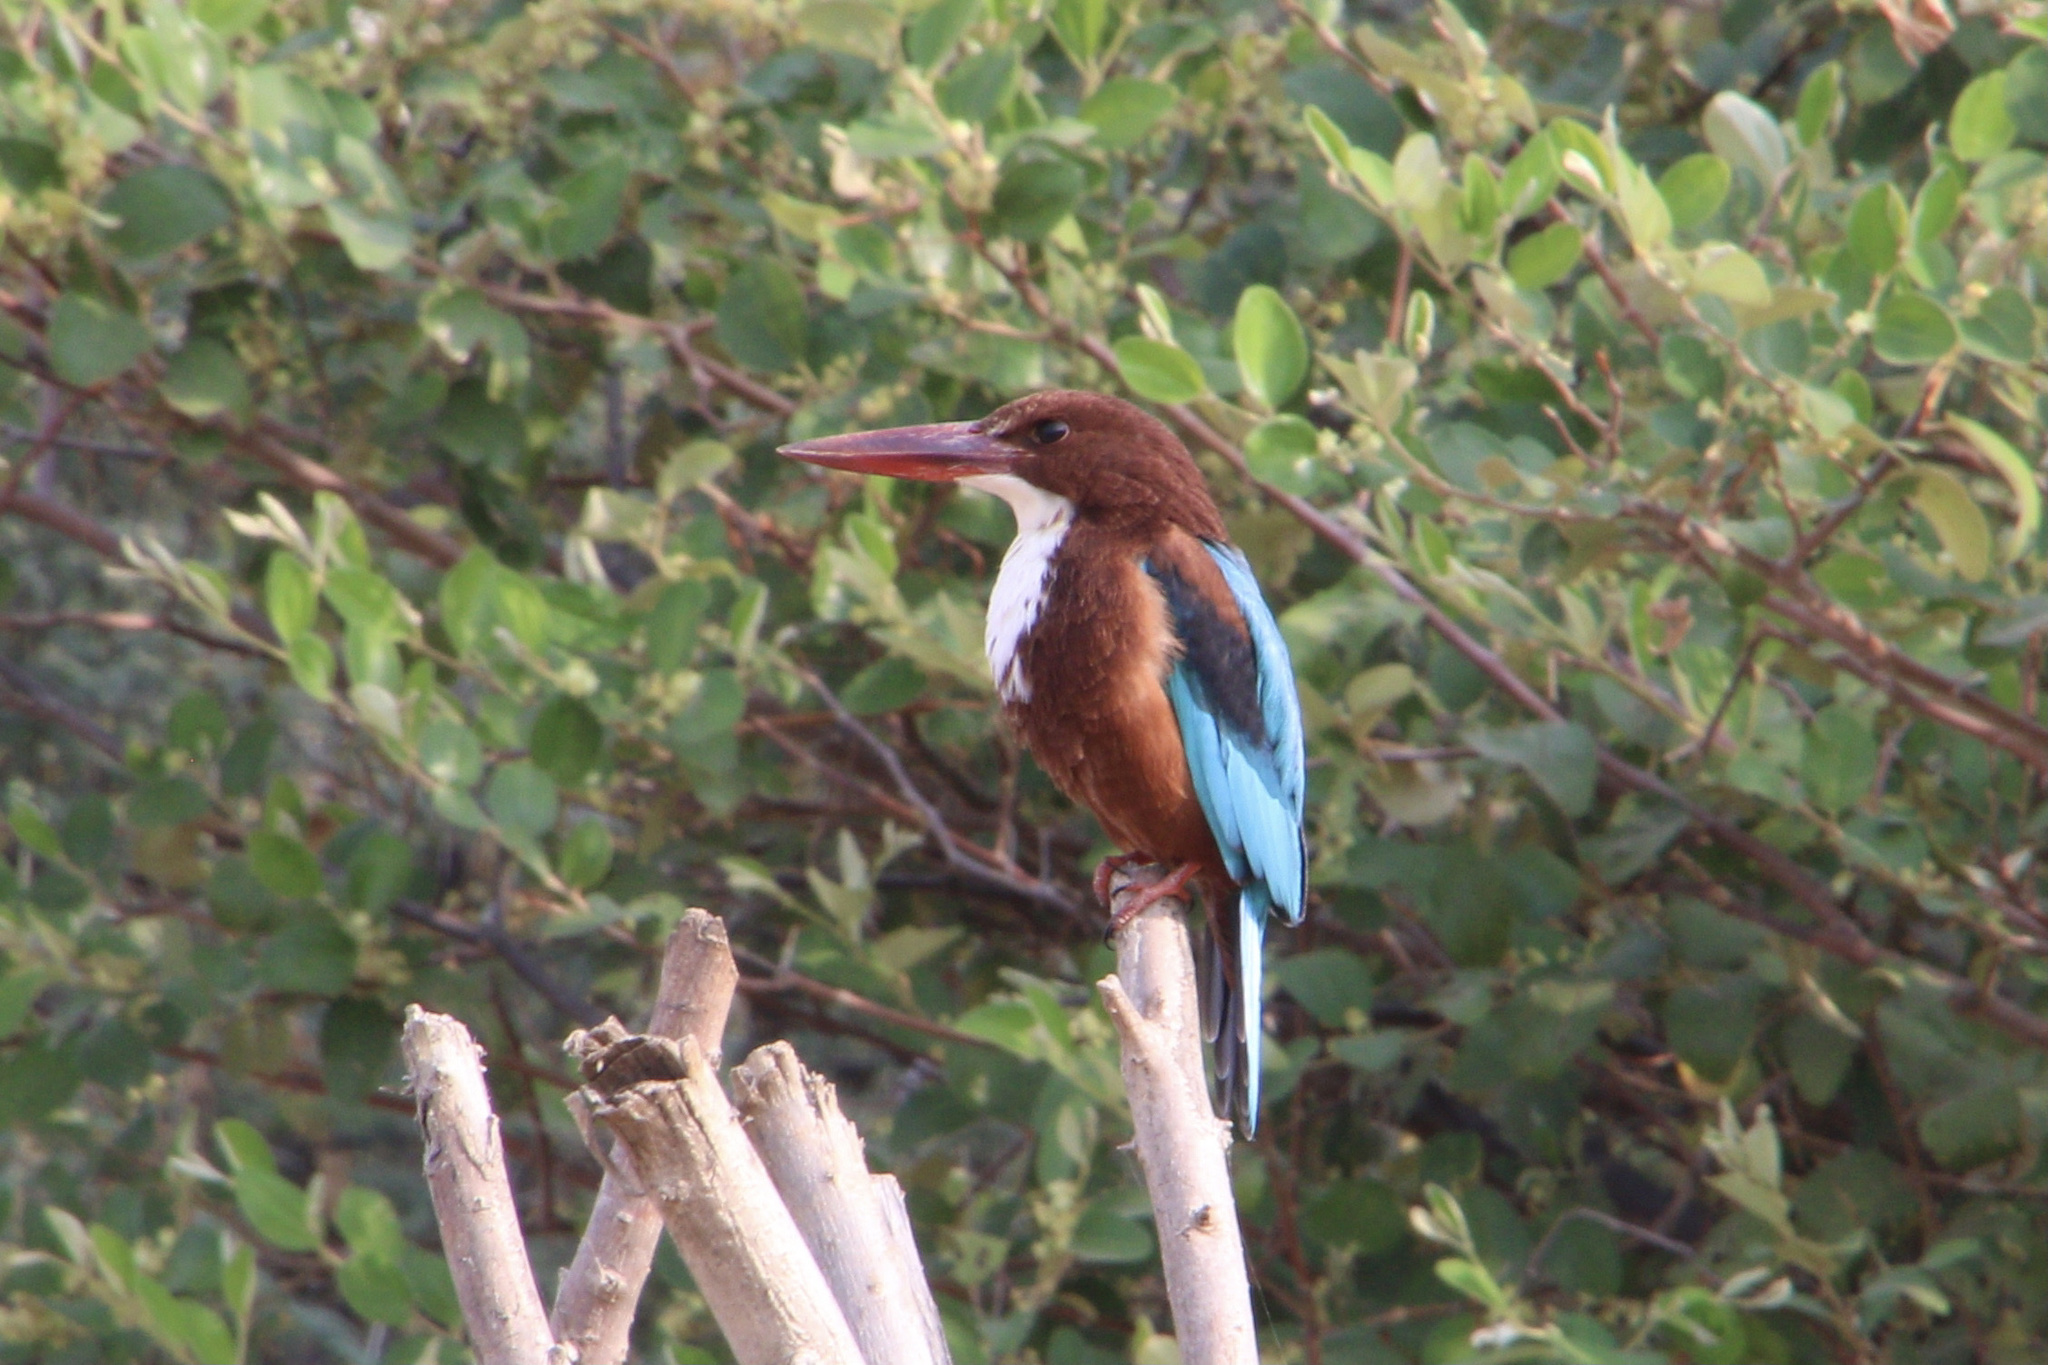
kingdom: Animalia
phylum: Chordata
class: Aves
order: Coraciiformes
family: Alcedinidae
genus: Halcyon
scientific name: Halcyon smyrnensis
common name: White-throated kingfisher
